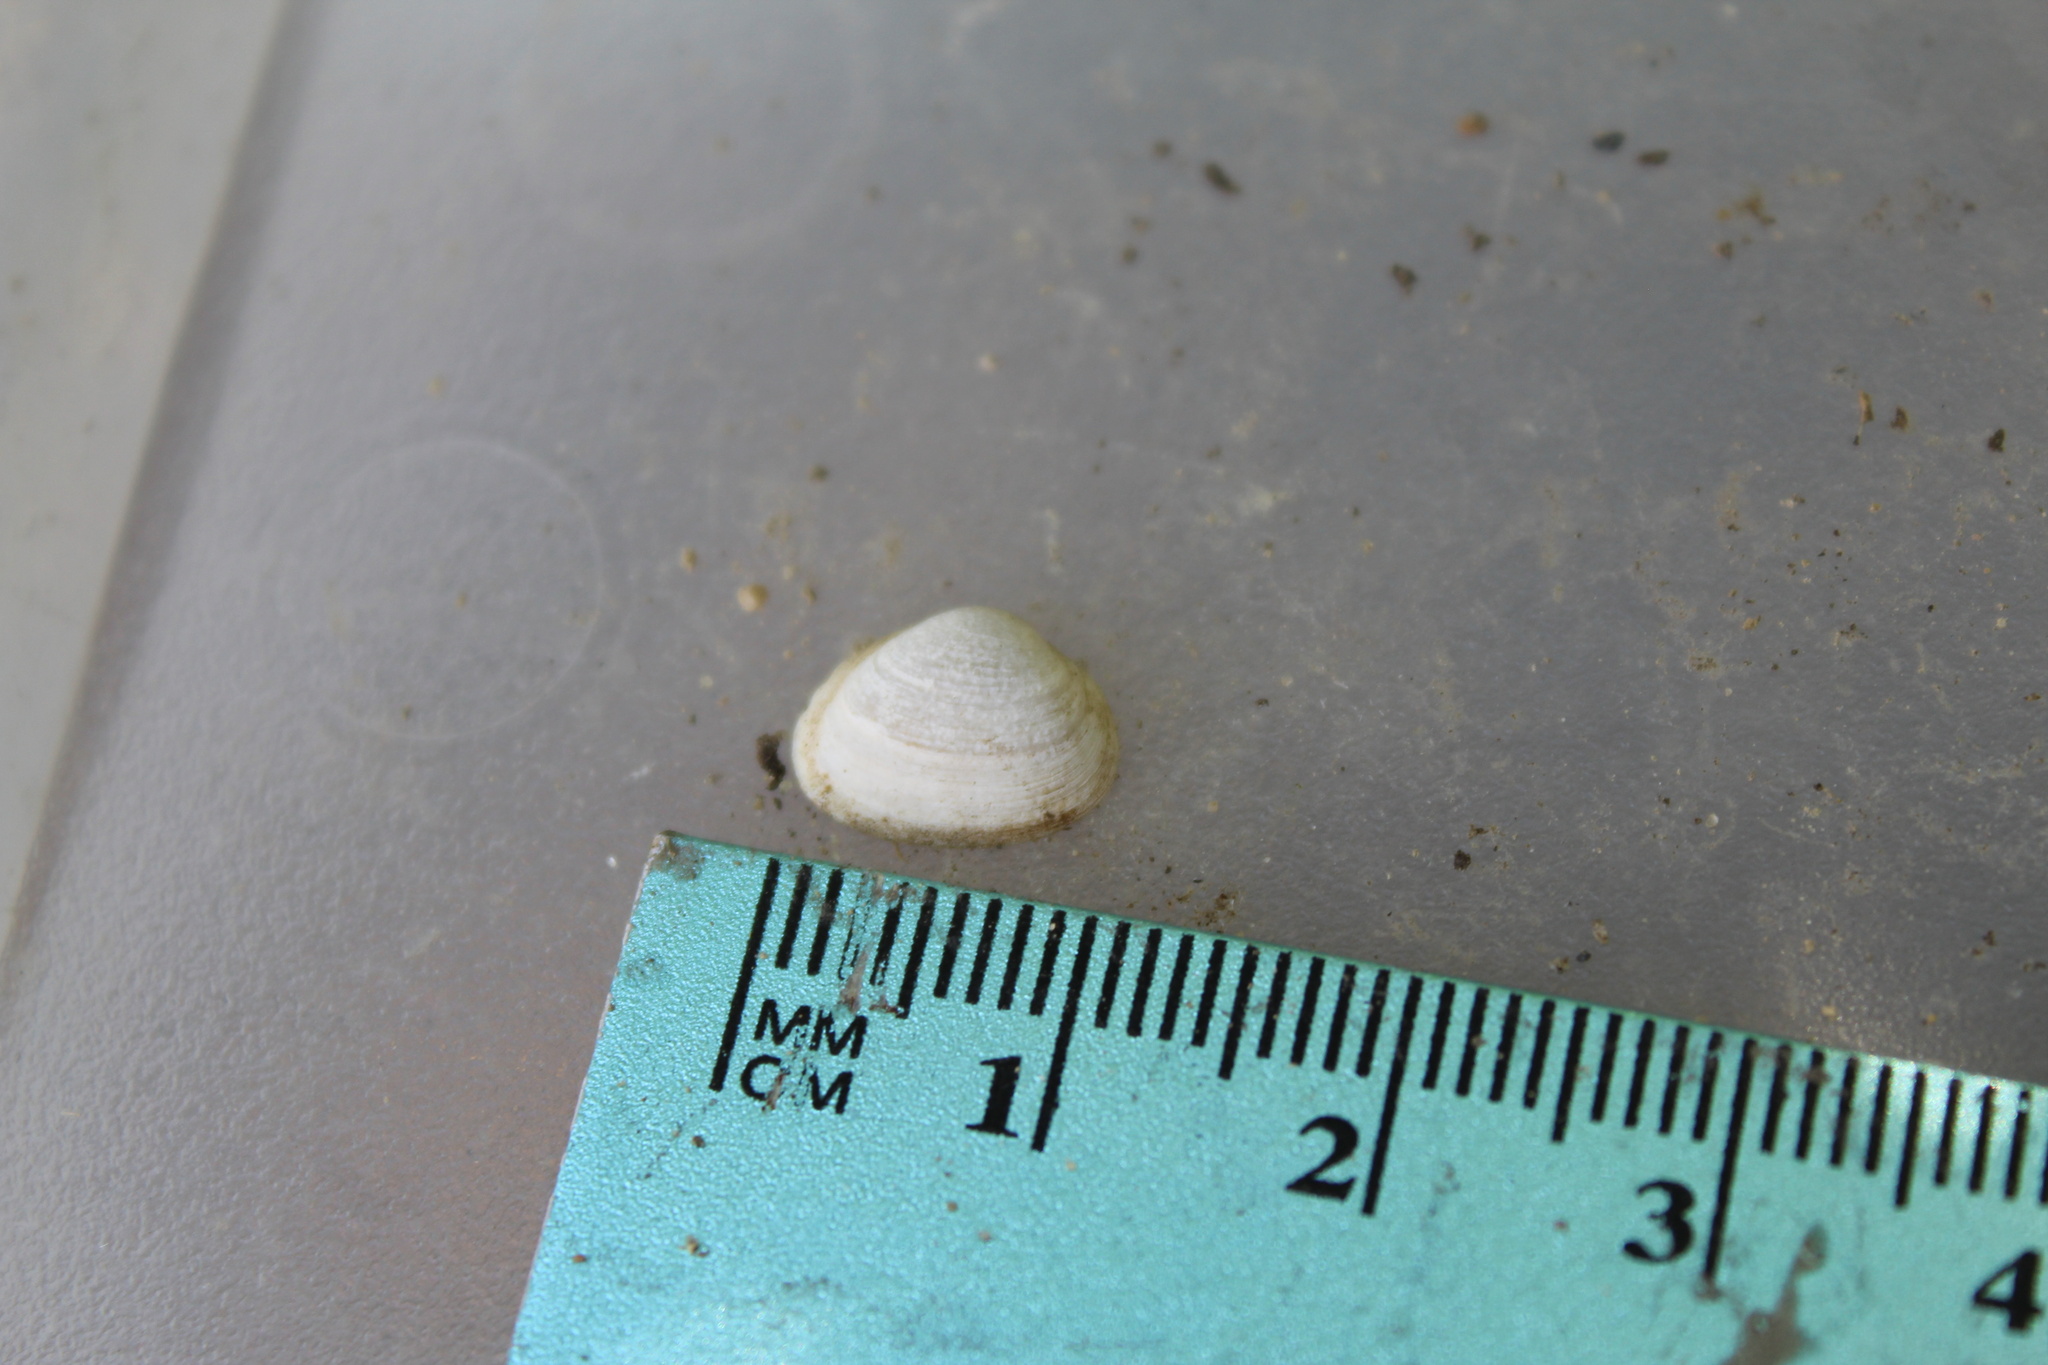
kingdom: Animalia
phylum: Mollusca
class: Bivalvia
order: Sphaeriida
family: Sphaeriidae
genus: Sphaerium
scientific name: Sphaerium striatinum
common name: Striated fingernailclam
